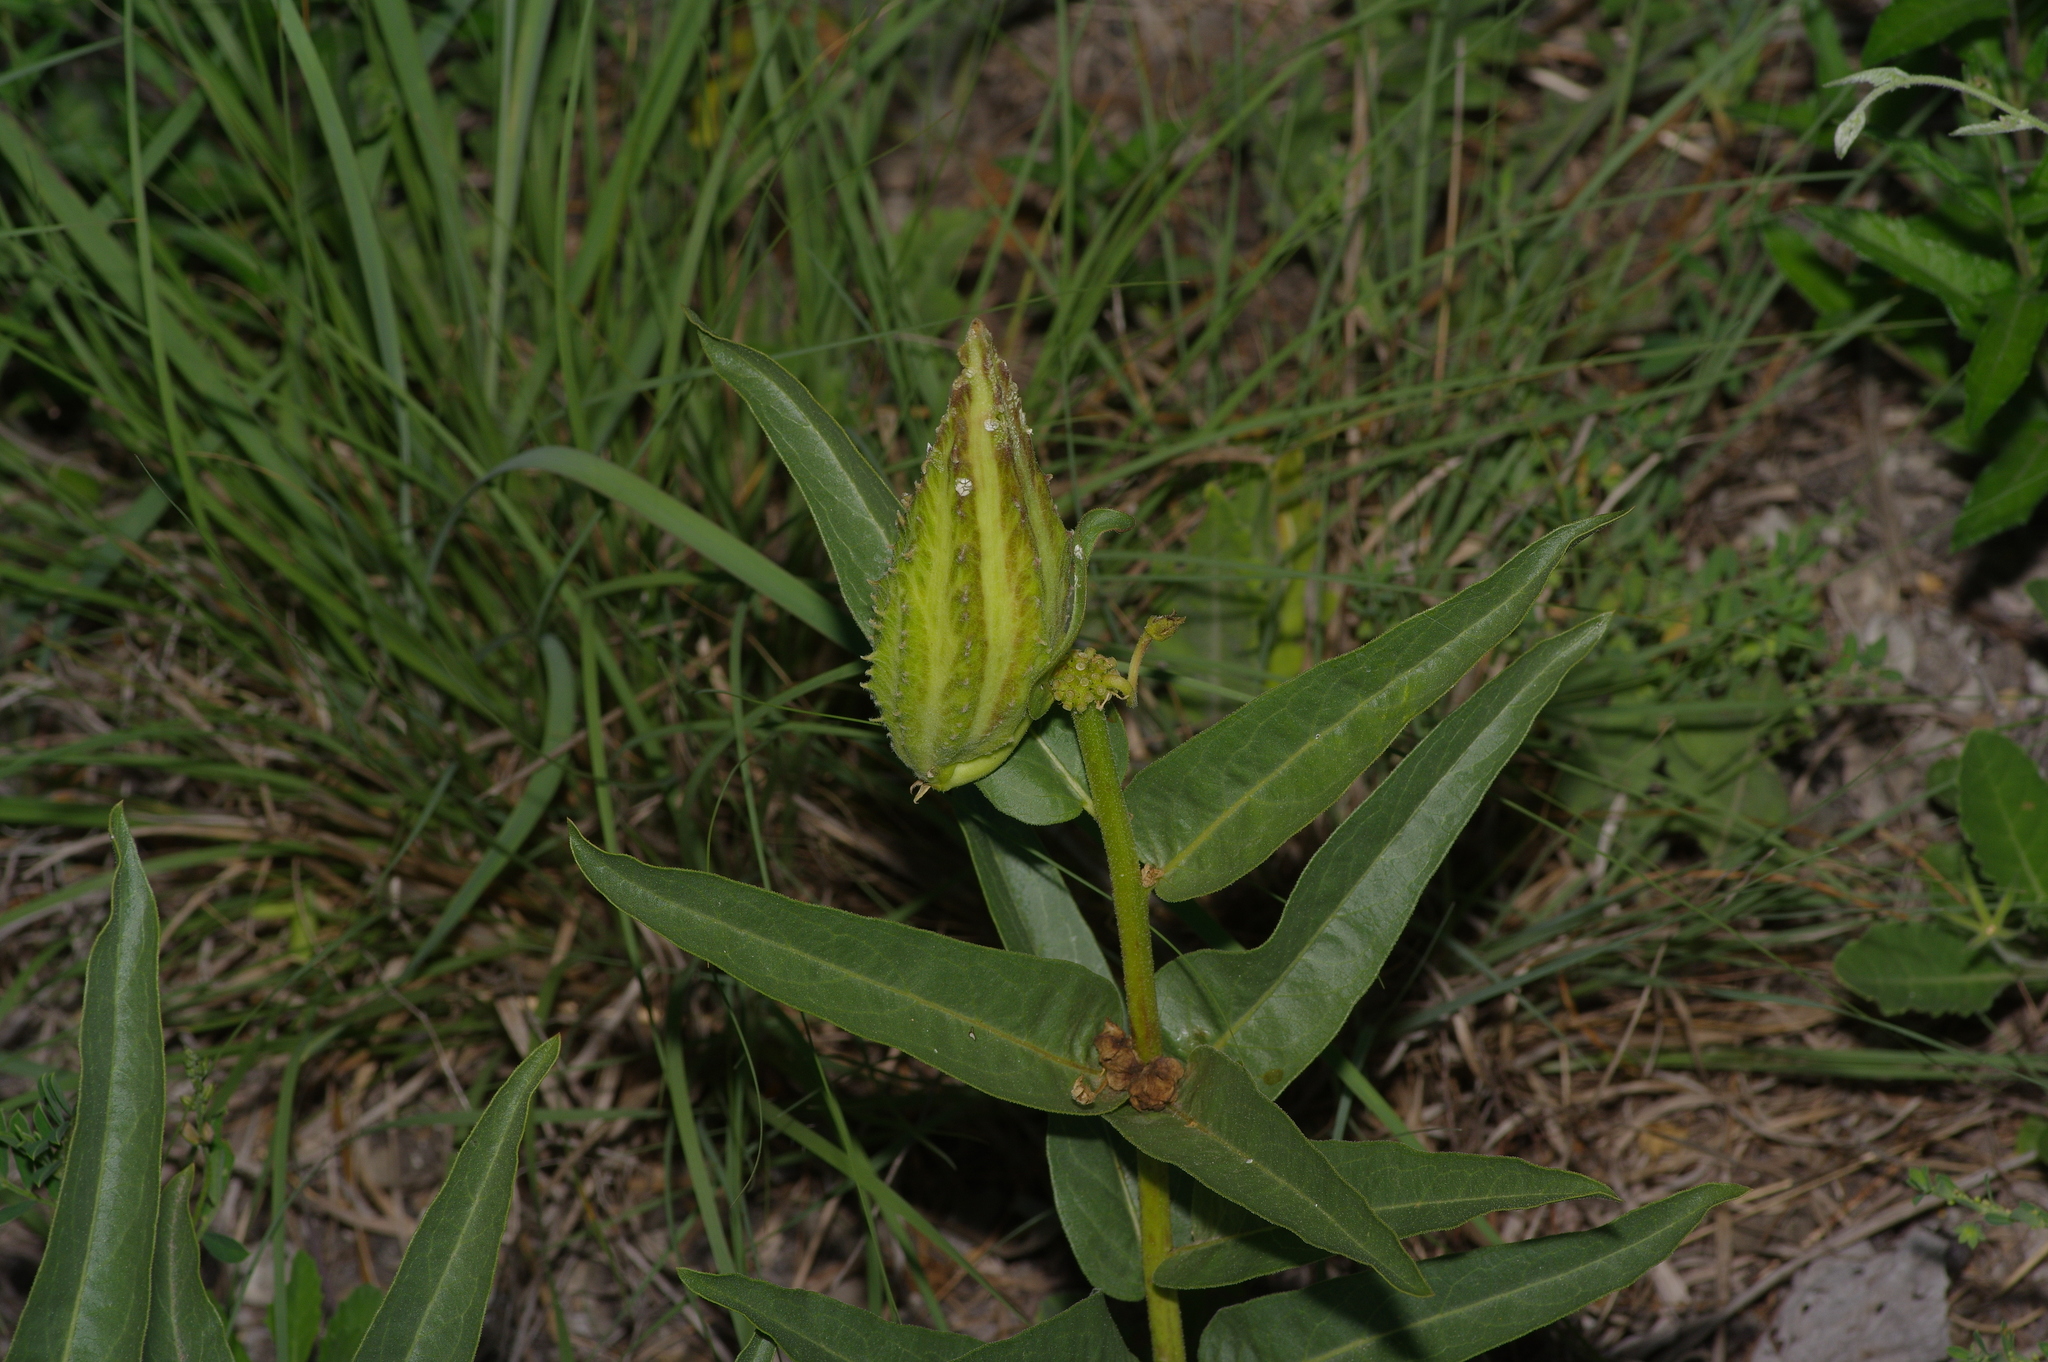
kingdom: Plantae
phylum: Tracheophyta
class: Magnoliopsida
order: Gentianales
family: Apocynaceae
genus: Asclepias
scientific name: Asclepias asperula
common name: Antelope horns
